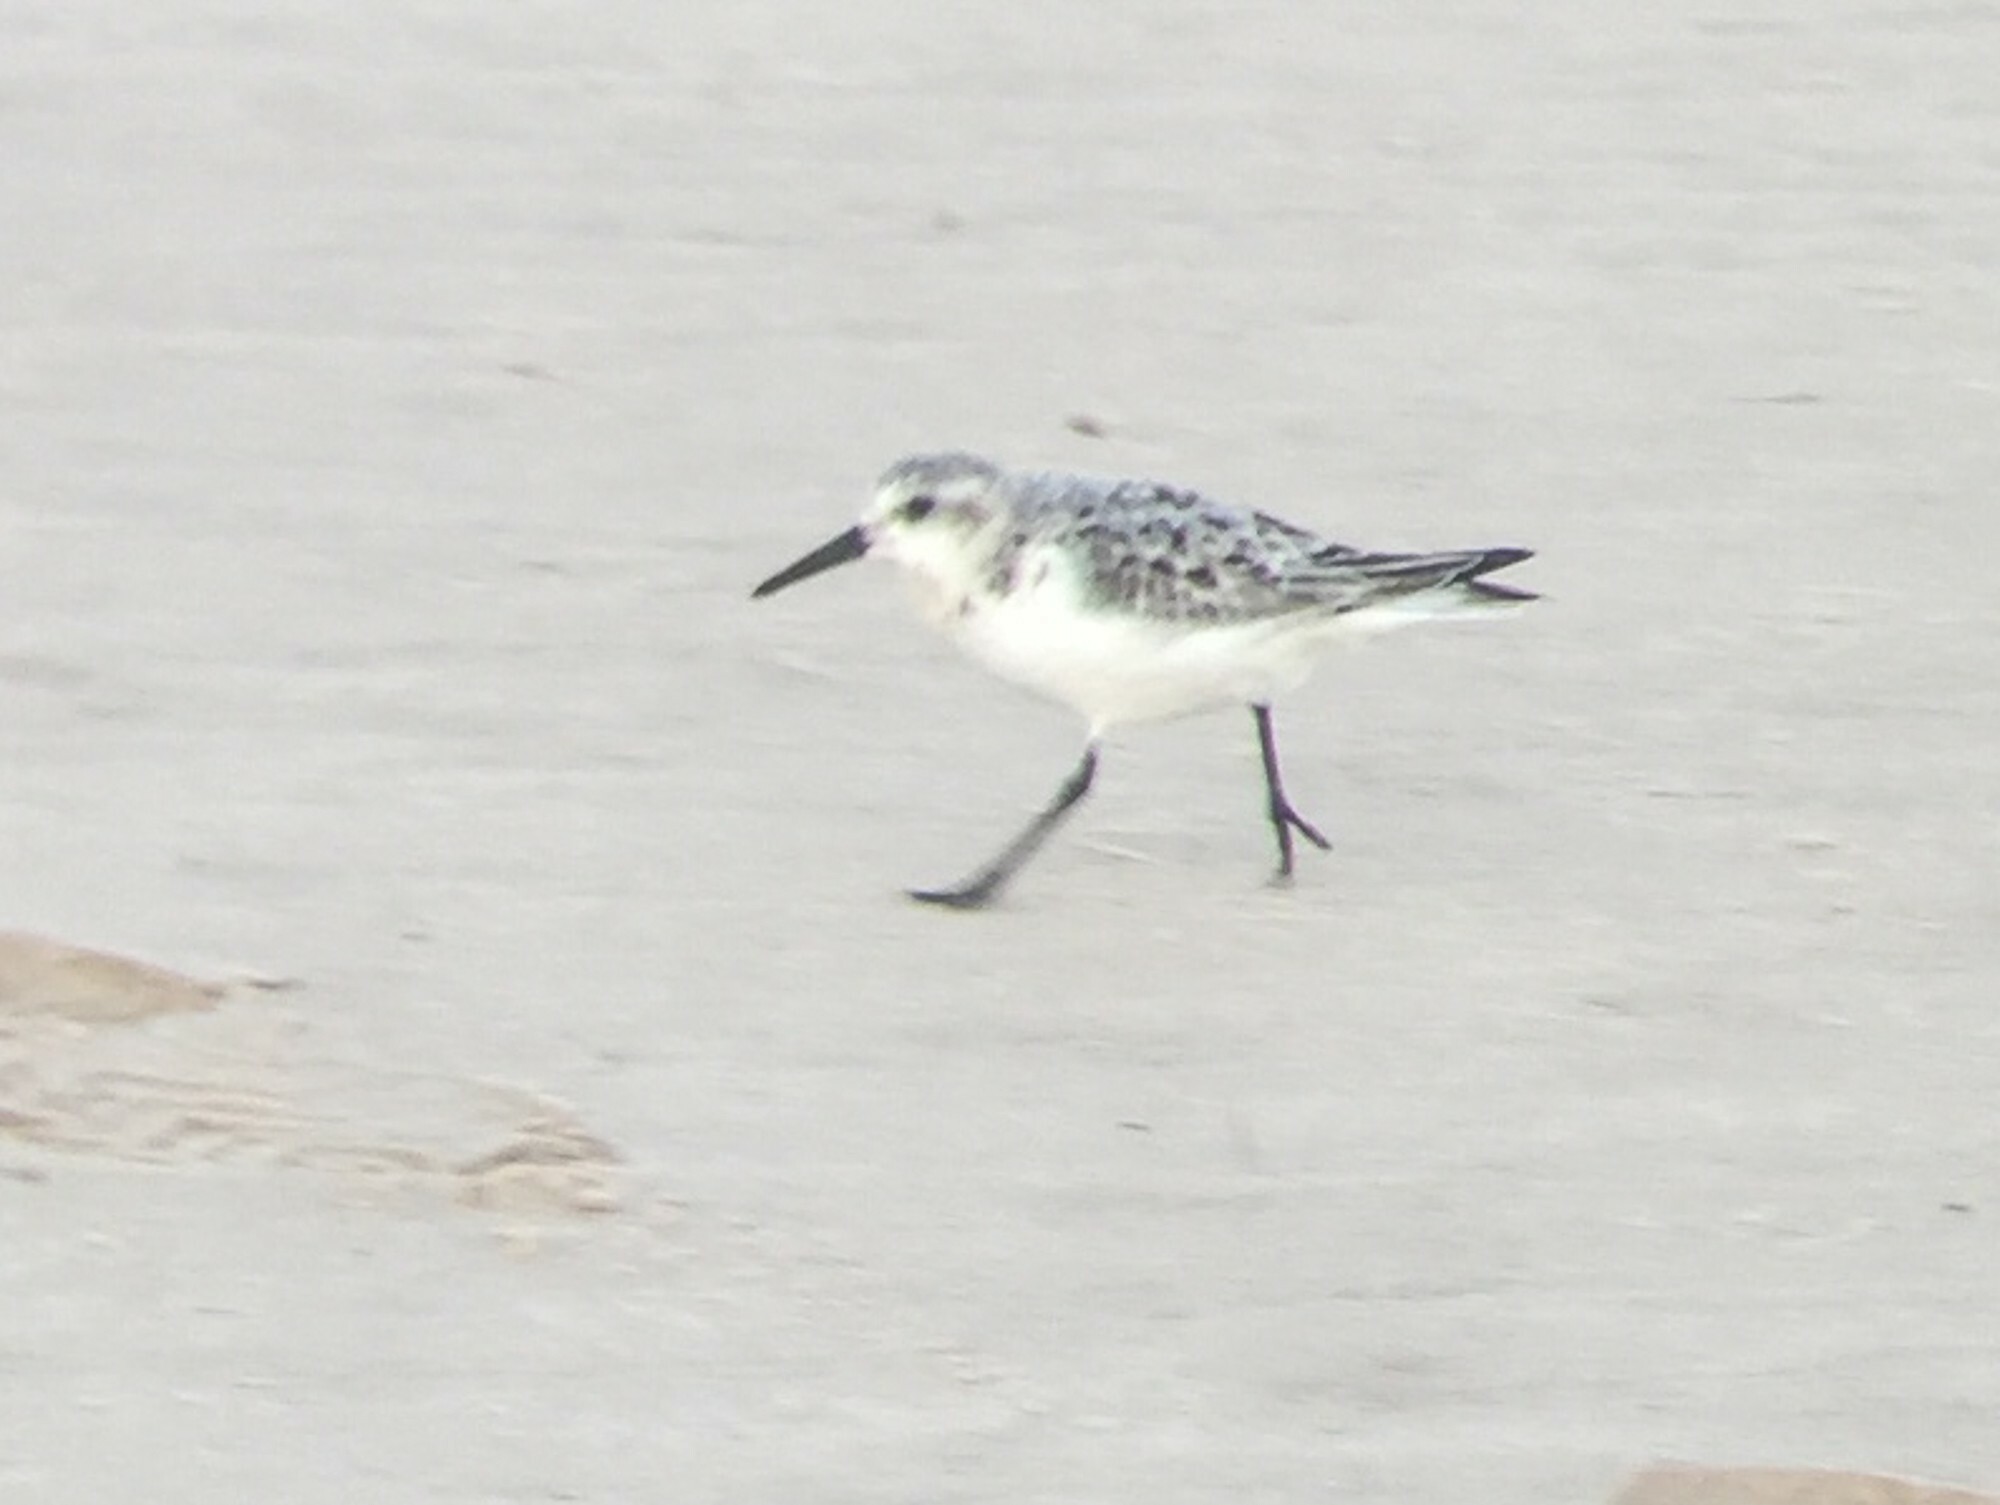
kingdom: Animalia
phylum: Chordata
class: Aves
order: Charadriiformes
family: Scolopacidae
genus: Calidris
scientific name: Calidris alba
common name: Sanderling
